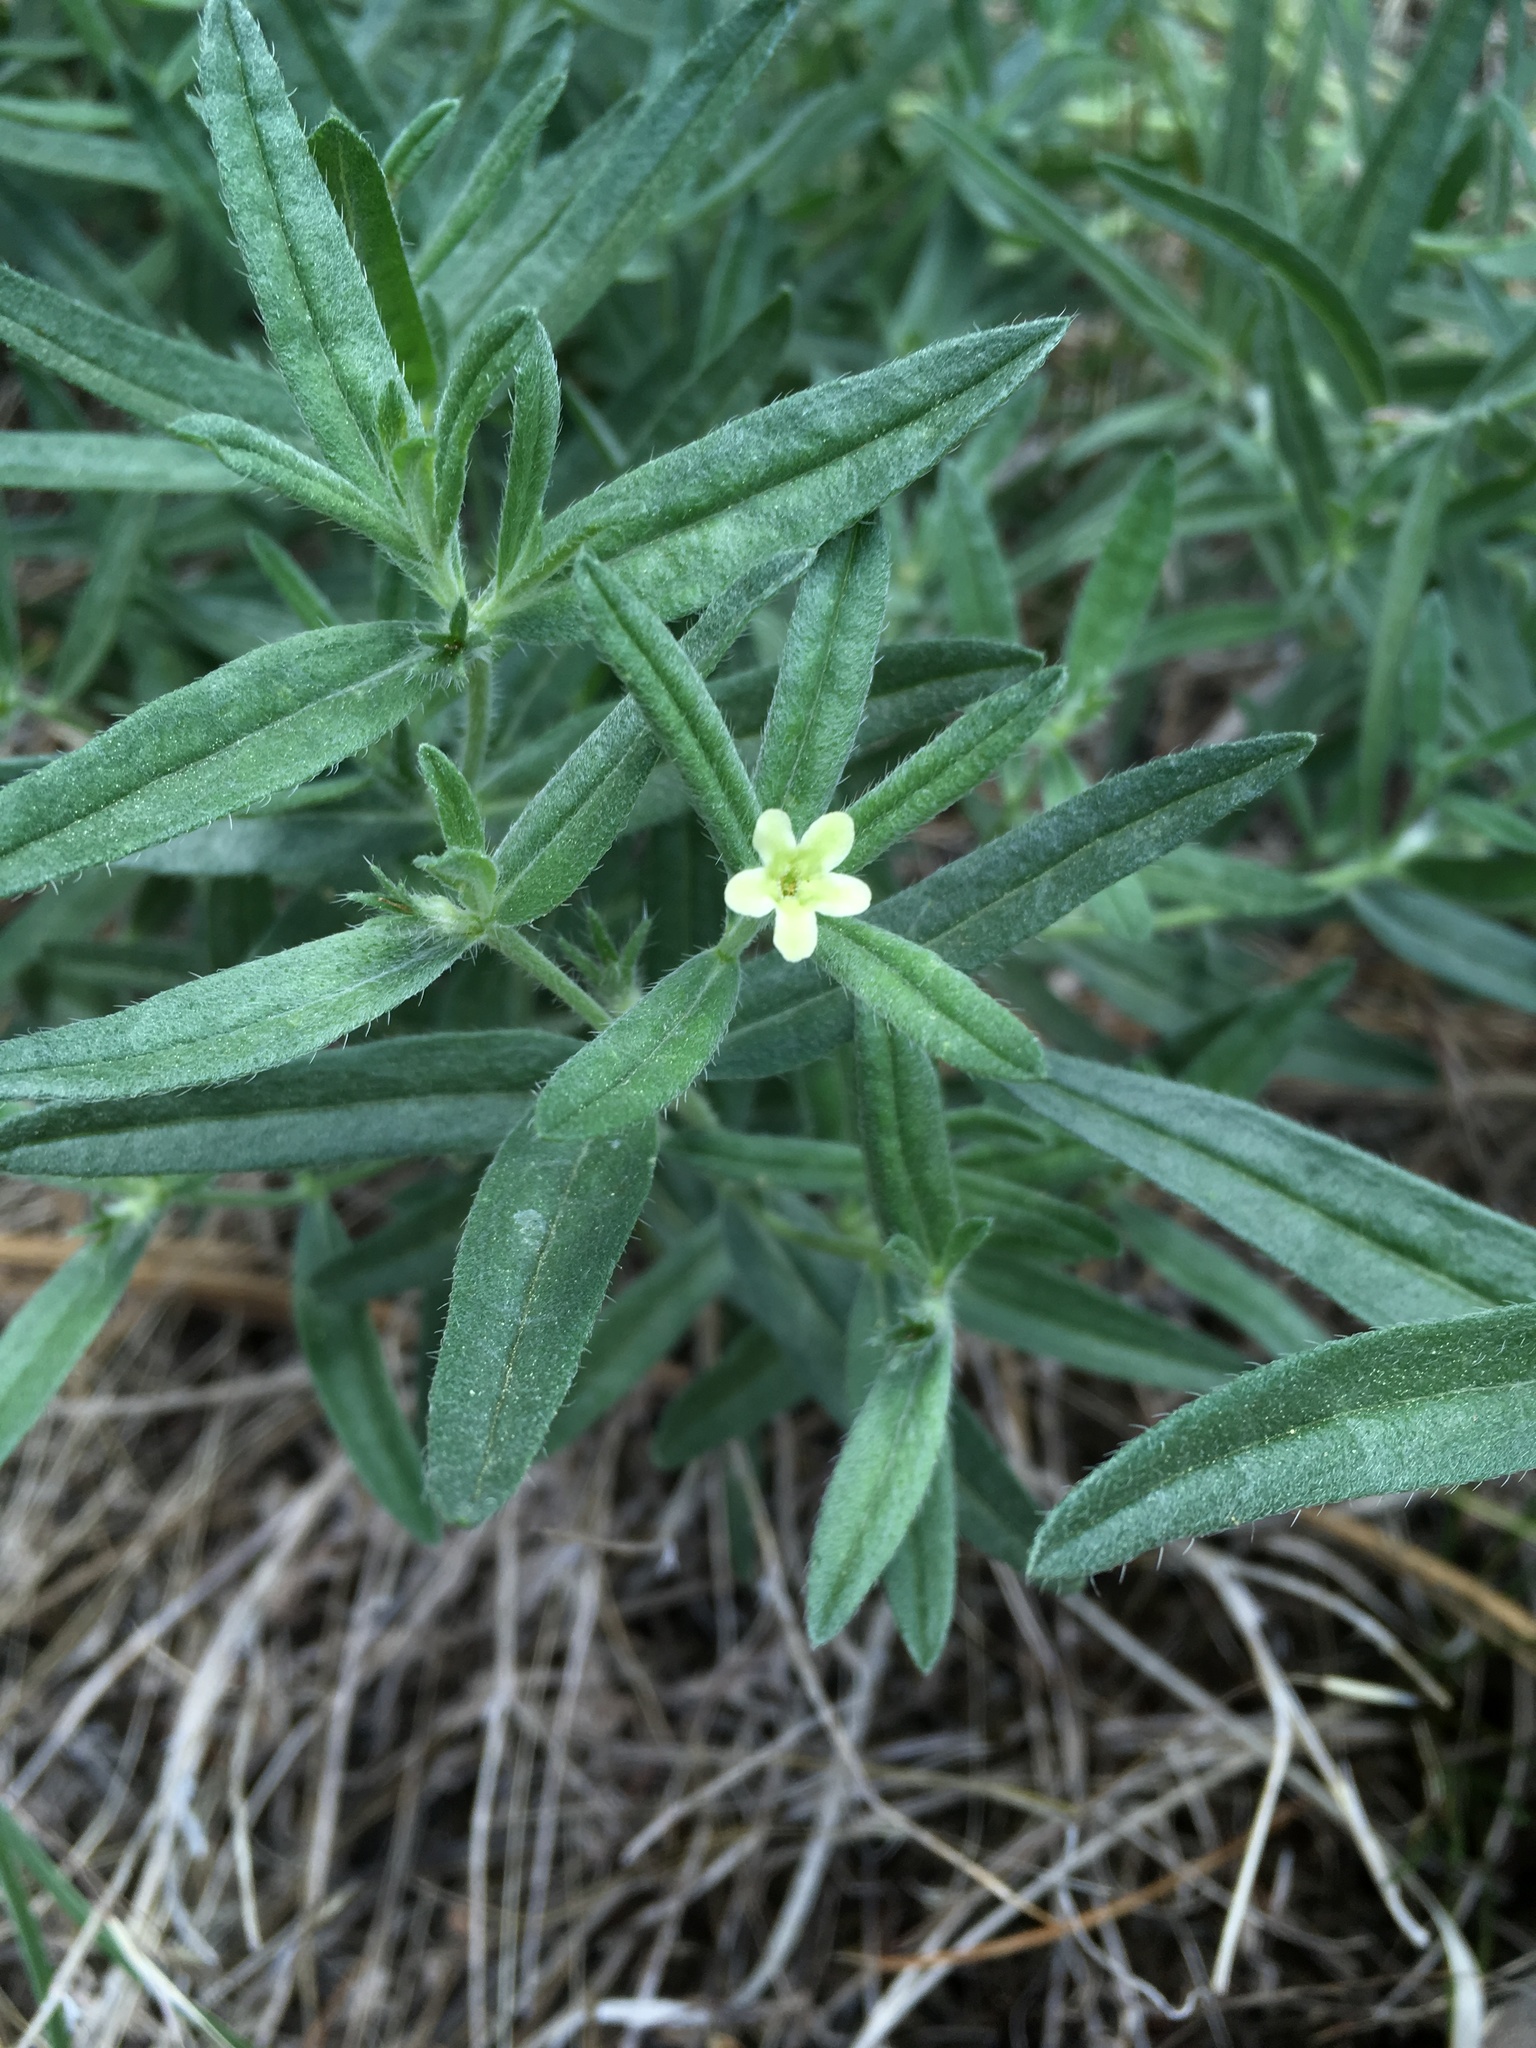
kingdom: Plantae
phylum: Tracheophyta
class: Magnoliopsida
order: Boraginales
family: Boraginaceae
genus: Lithospermum
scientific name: Lithospermum ruderale
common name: Western gromwell
